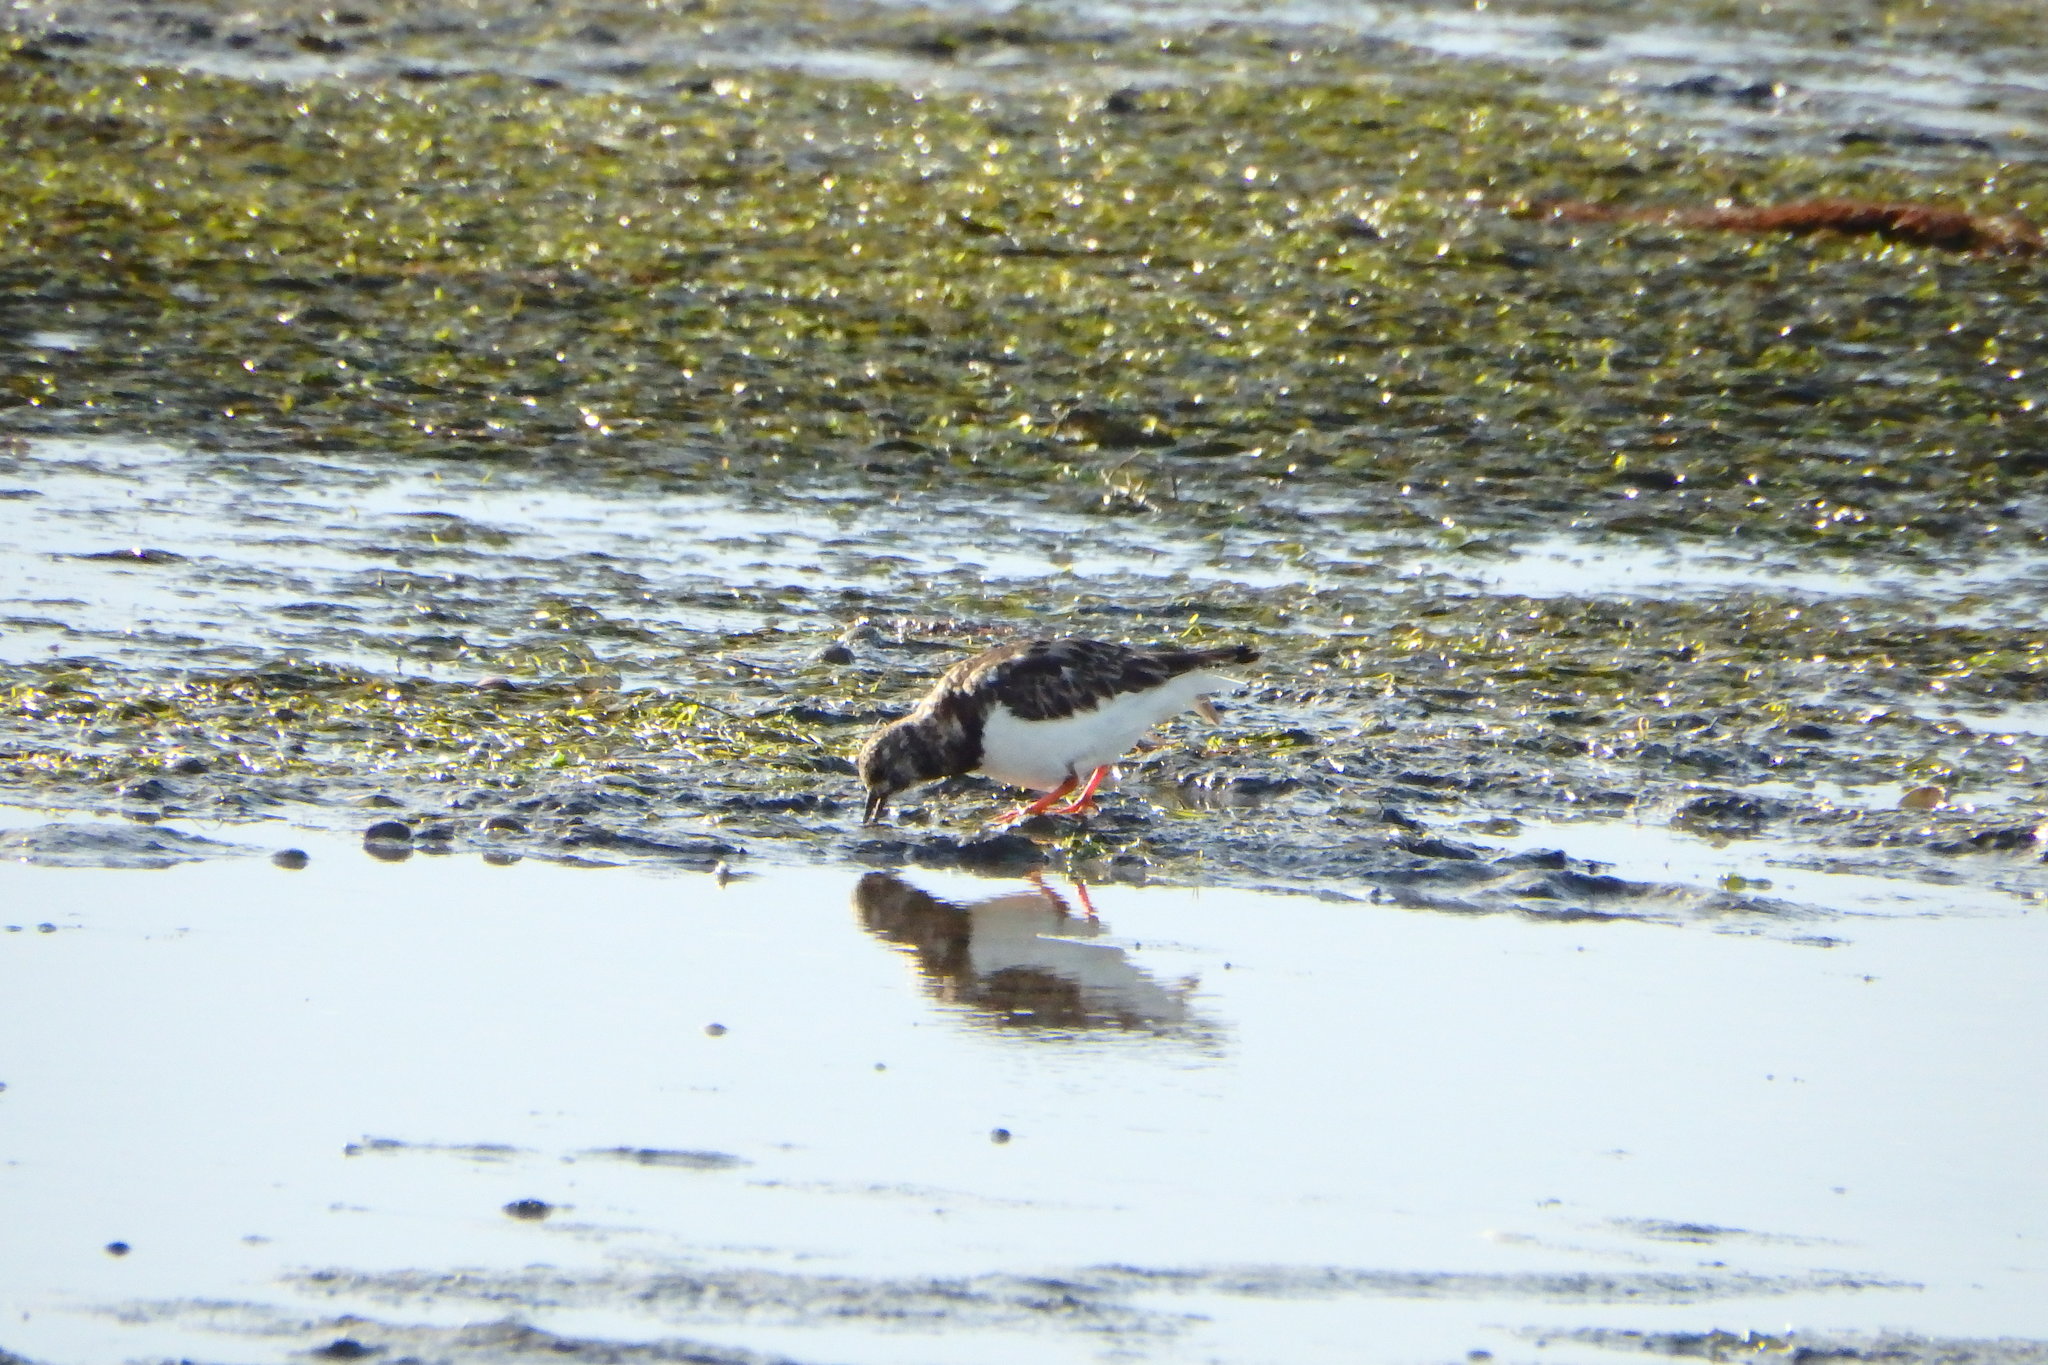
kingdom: Animalia
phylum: Chordata
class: Aves
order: Charadriiformes
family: Scolopacidae
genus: Arenaria
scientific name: Arenaria interpres
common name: Ruddy turnstone
